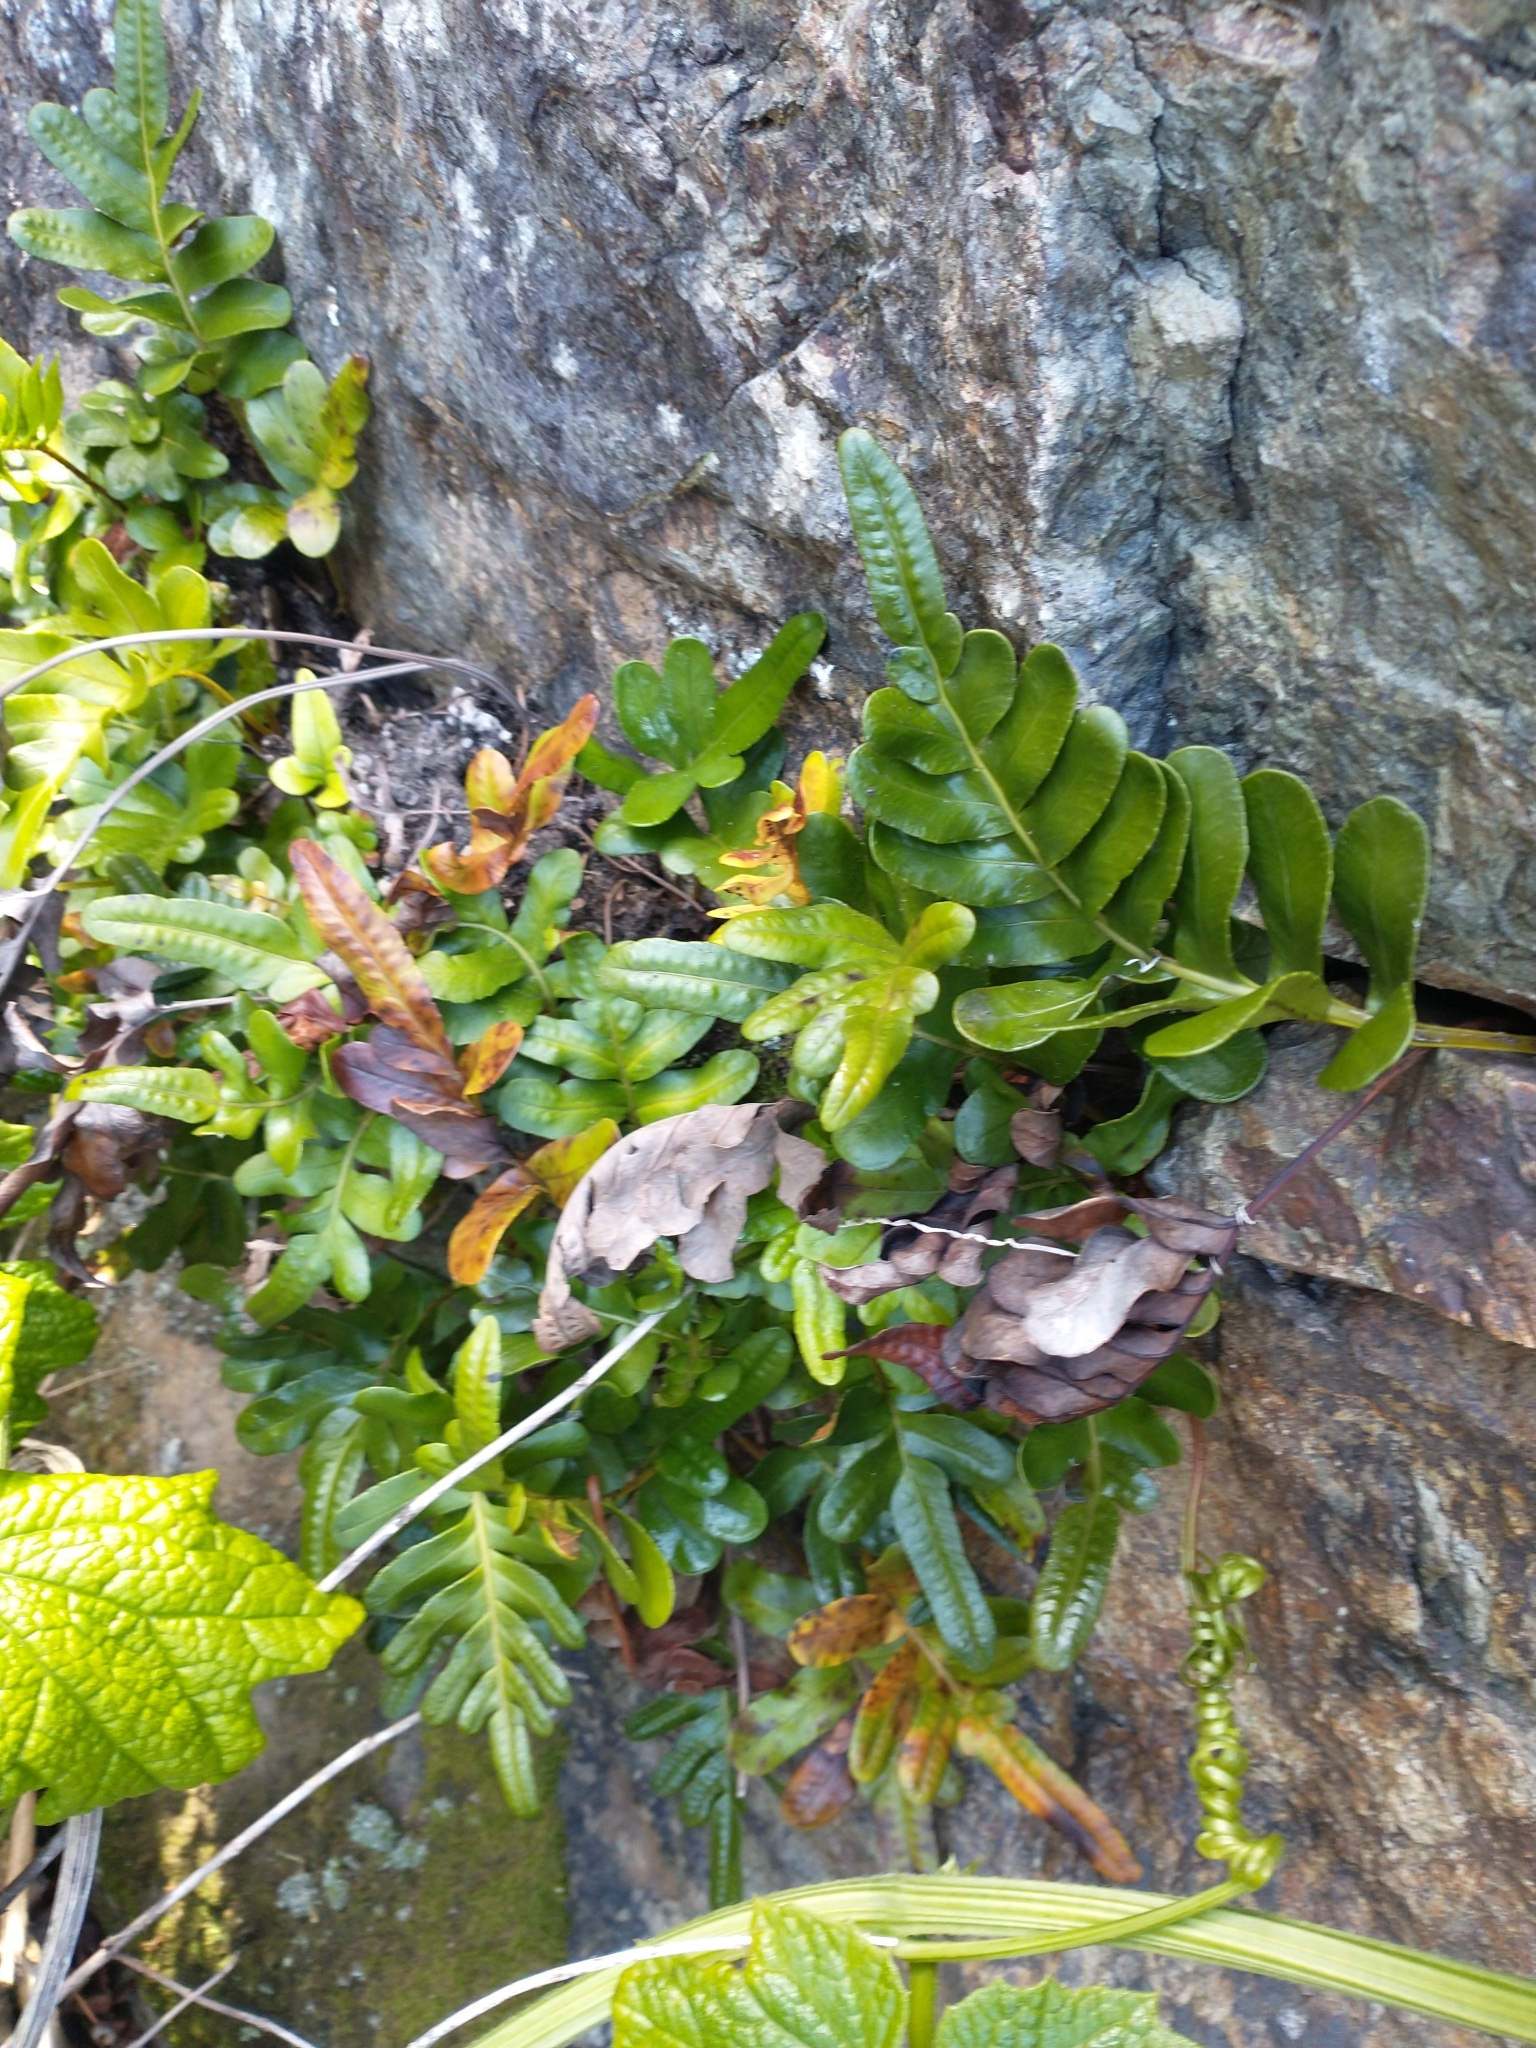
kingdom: Plantae
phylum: Tracheophyta
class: Polypodiopsida
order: Polypodiales
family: Polypodiaceae
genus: Polypodium
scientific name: Polypodium scouleri
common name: Scouler's polypody
